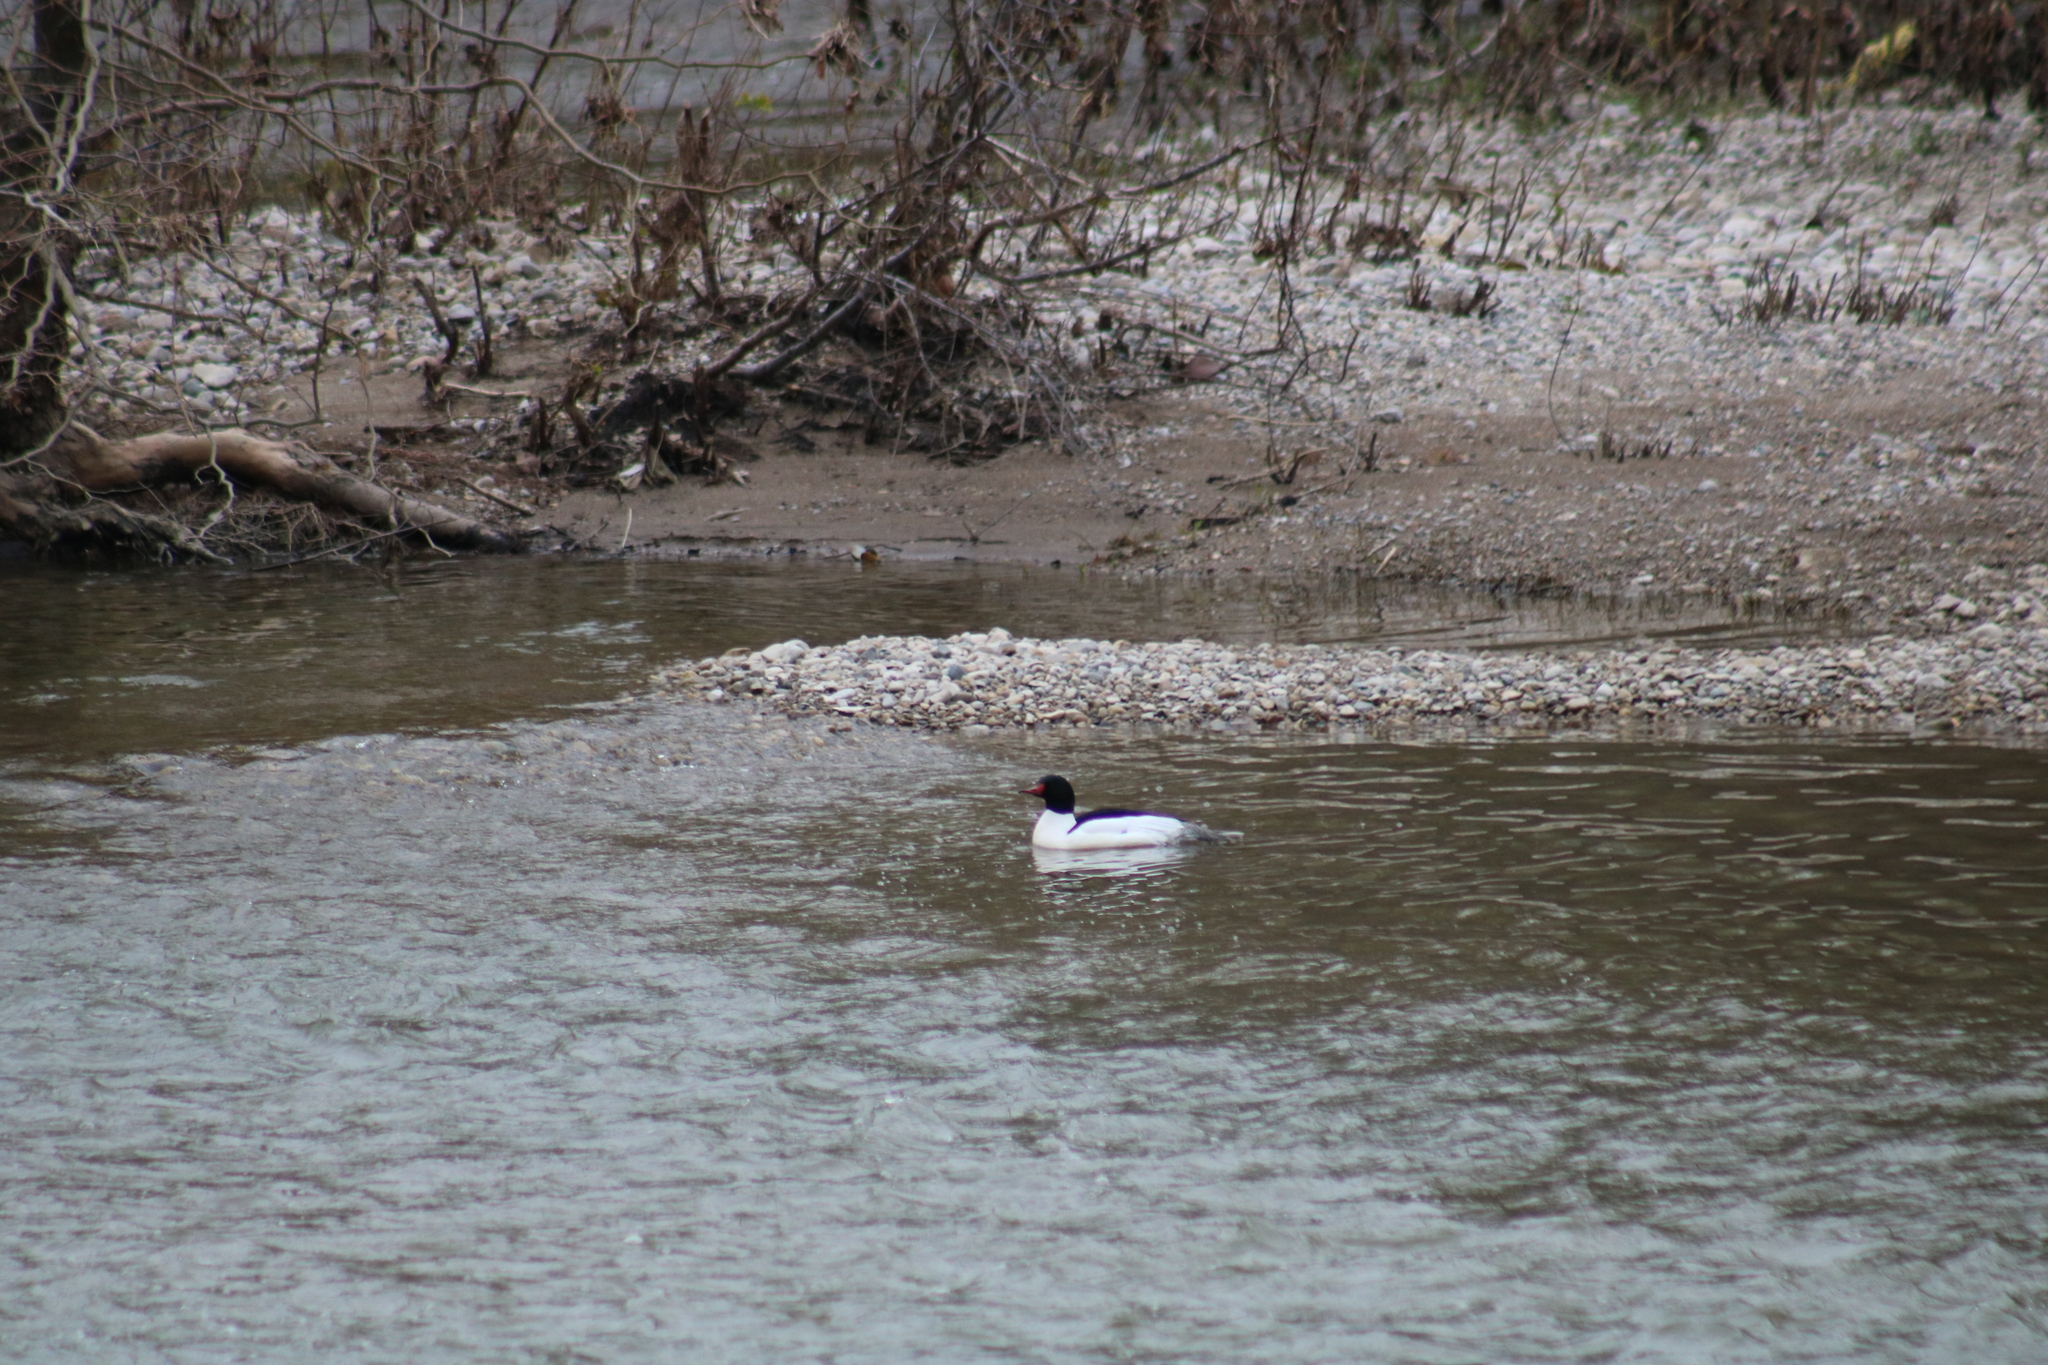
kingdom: Animalia
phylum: Chordata
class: Aves
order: Anseriformes
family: Anatidae
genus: Mergus
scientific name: Mergus merganser
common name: Common merganser
